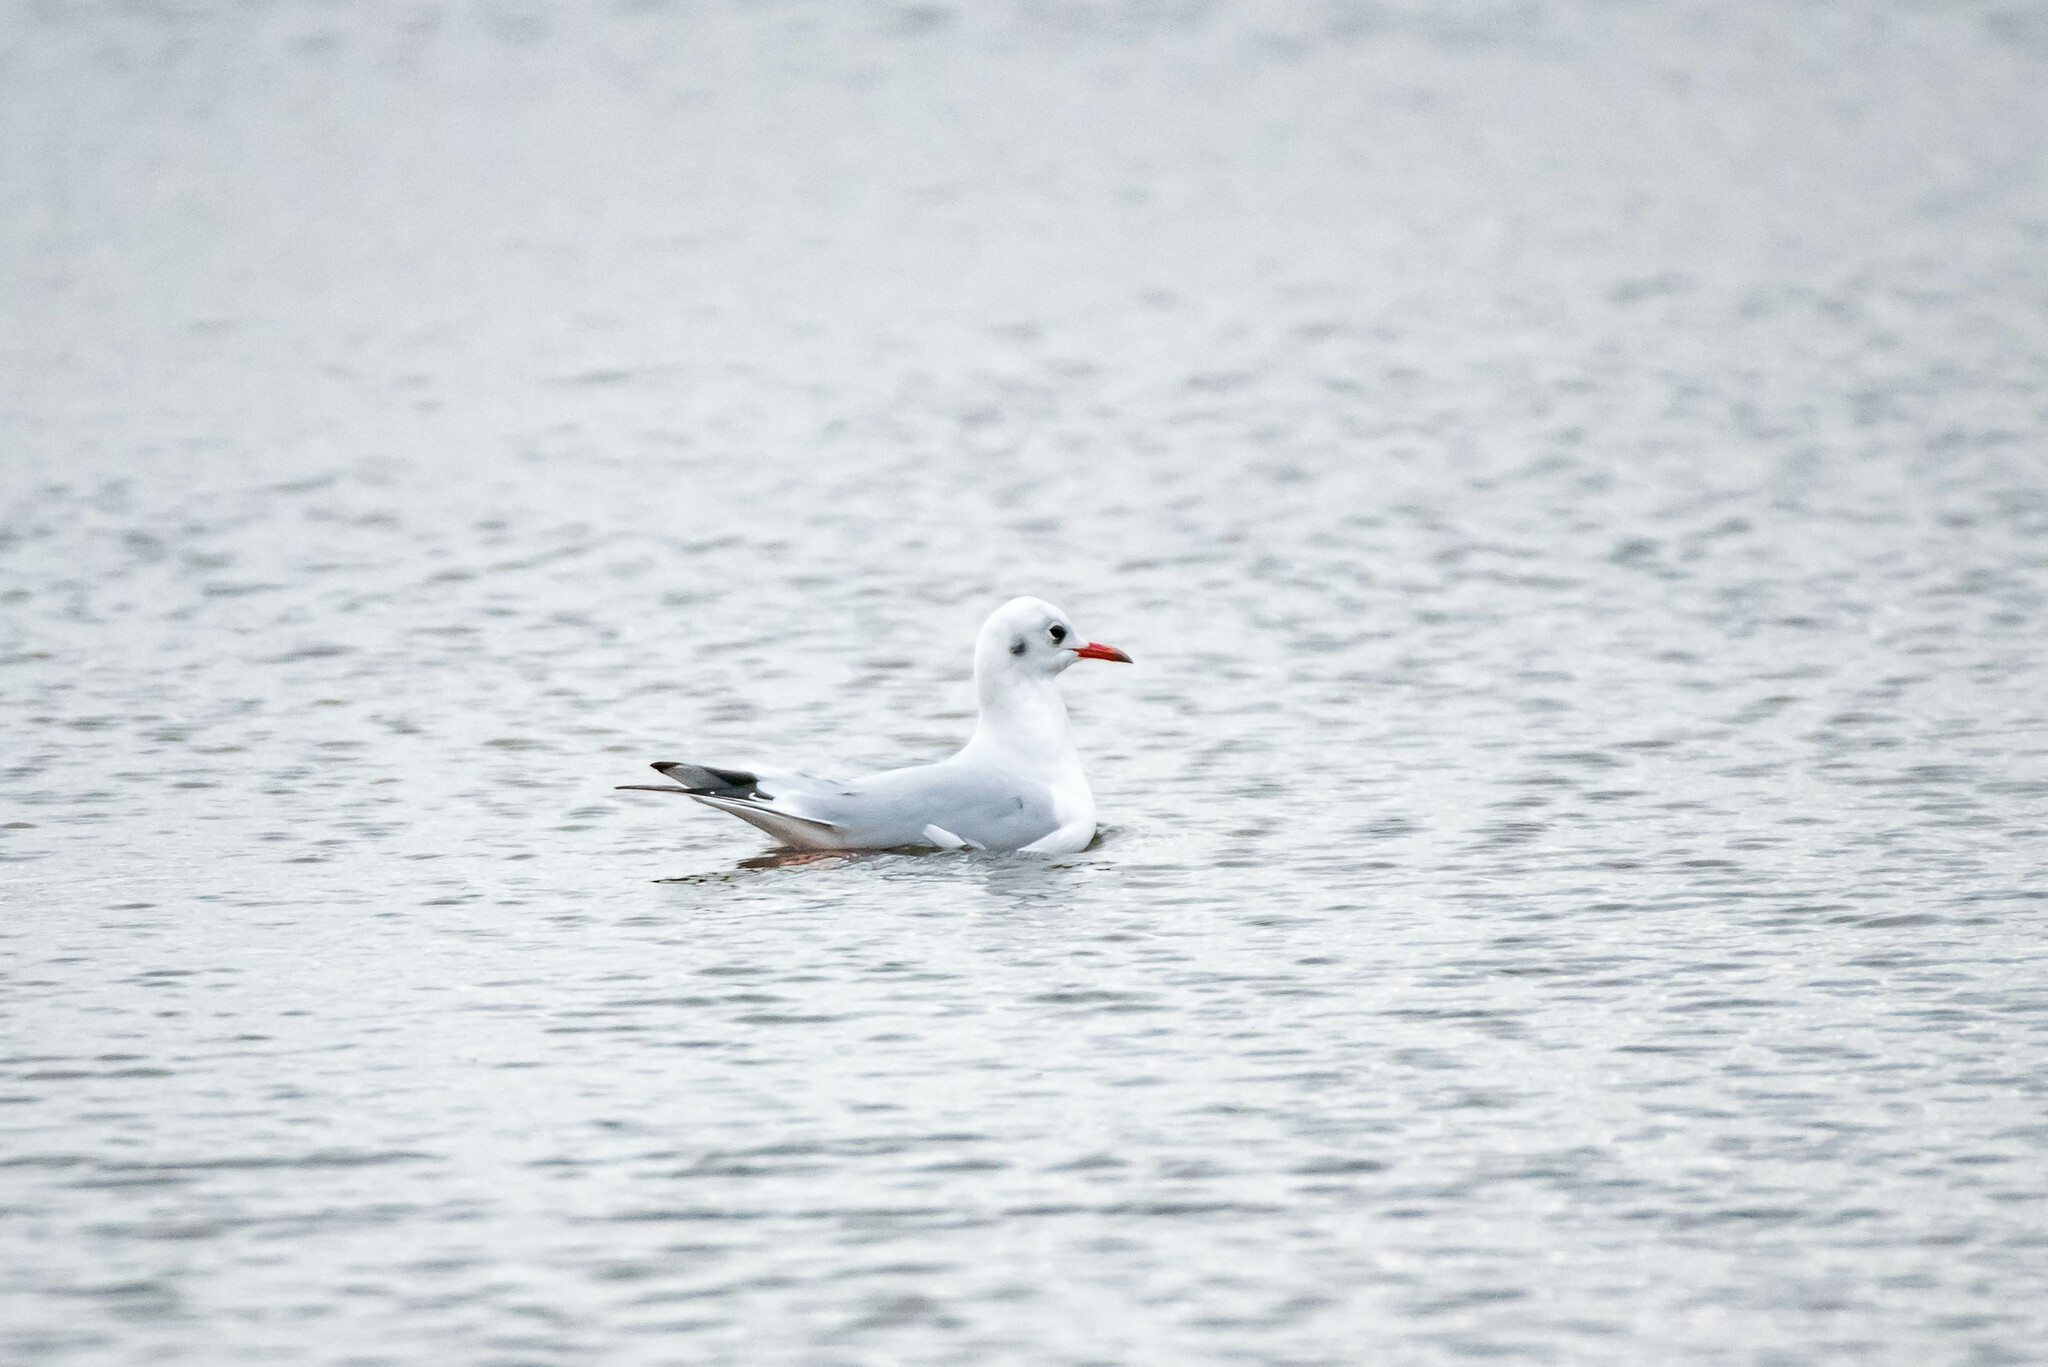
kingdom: Animalia
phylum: Chordata
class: Aves
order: Charadriiformes
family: Laridae
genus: Chroicocephalus
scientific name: Chroicocephalus ridibundus
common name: Black-headed gull
